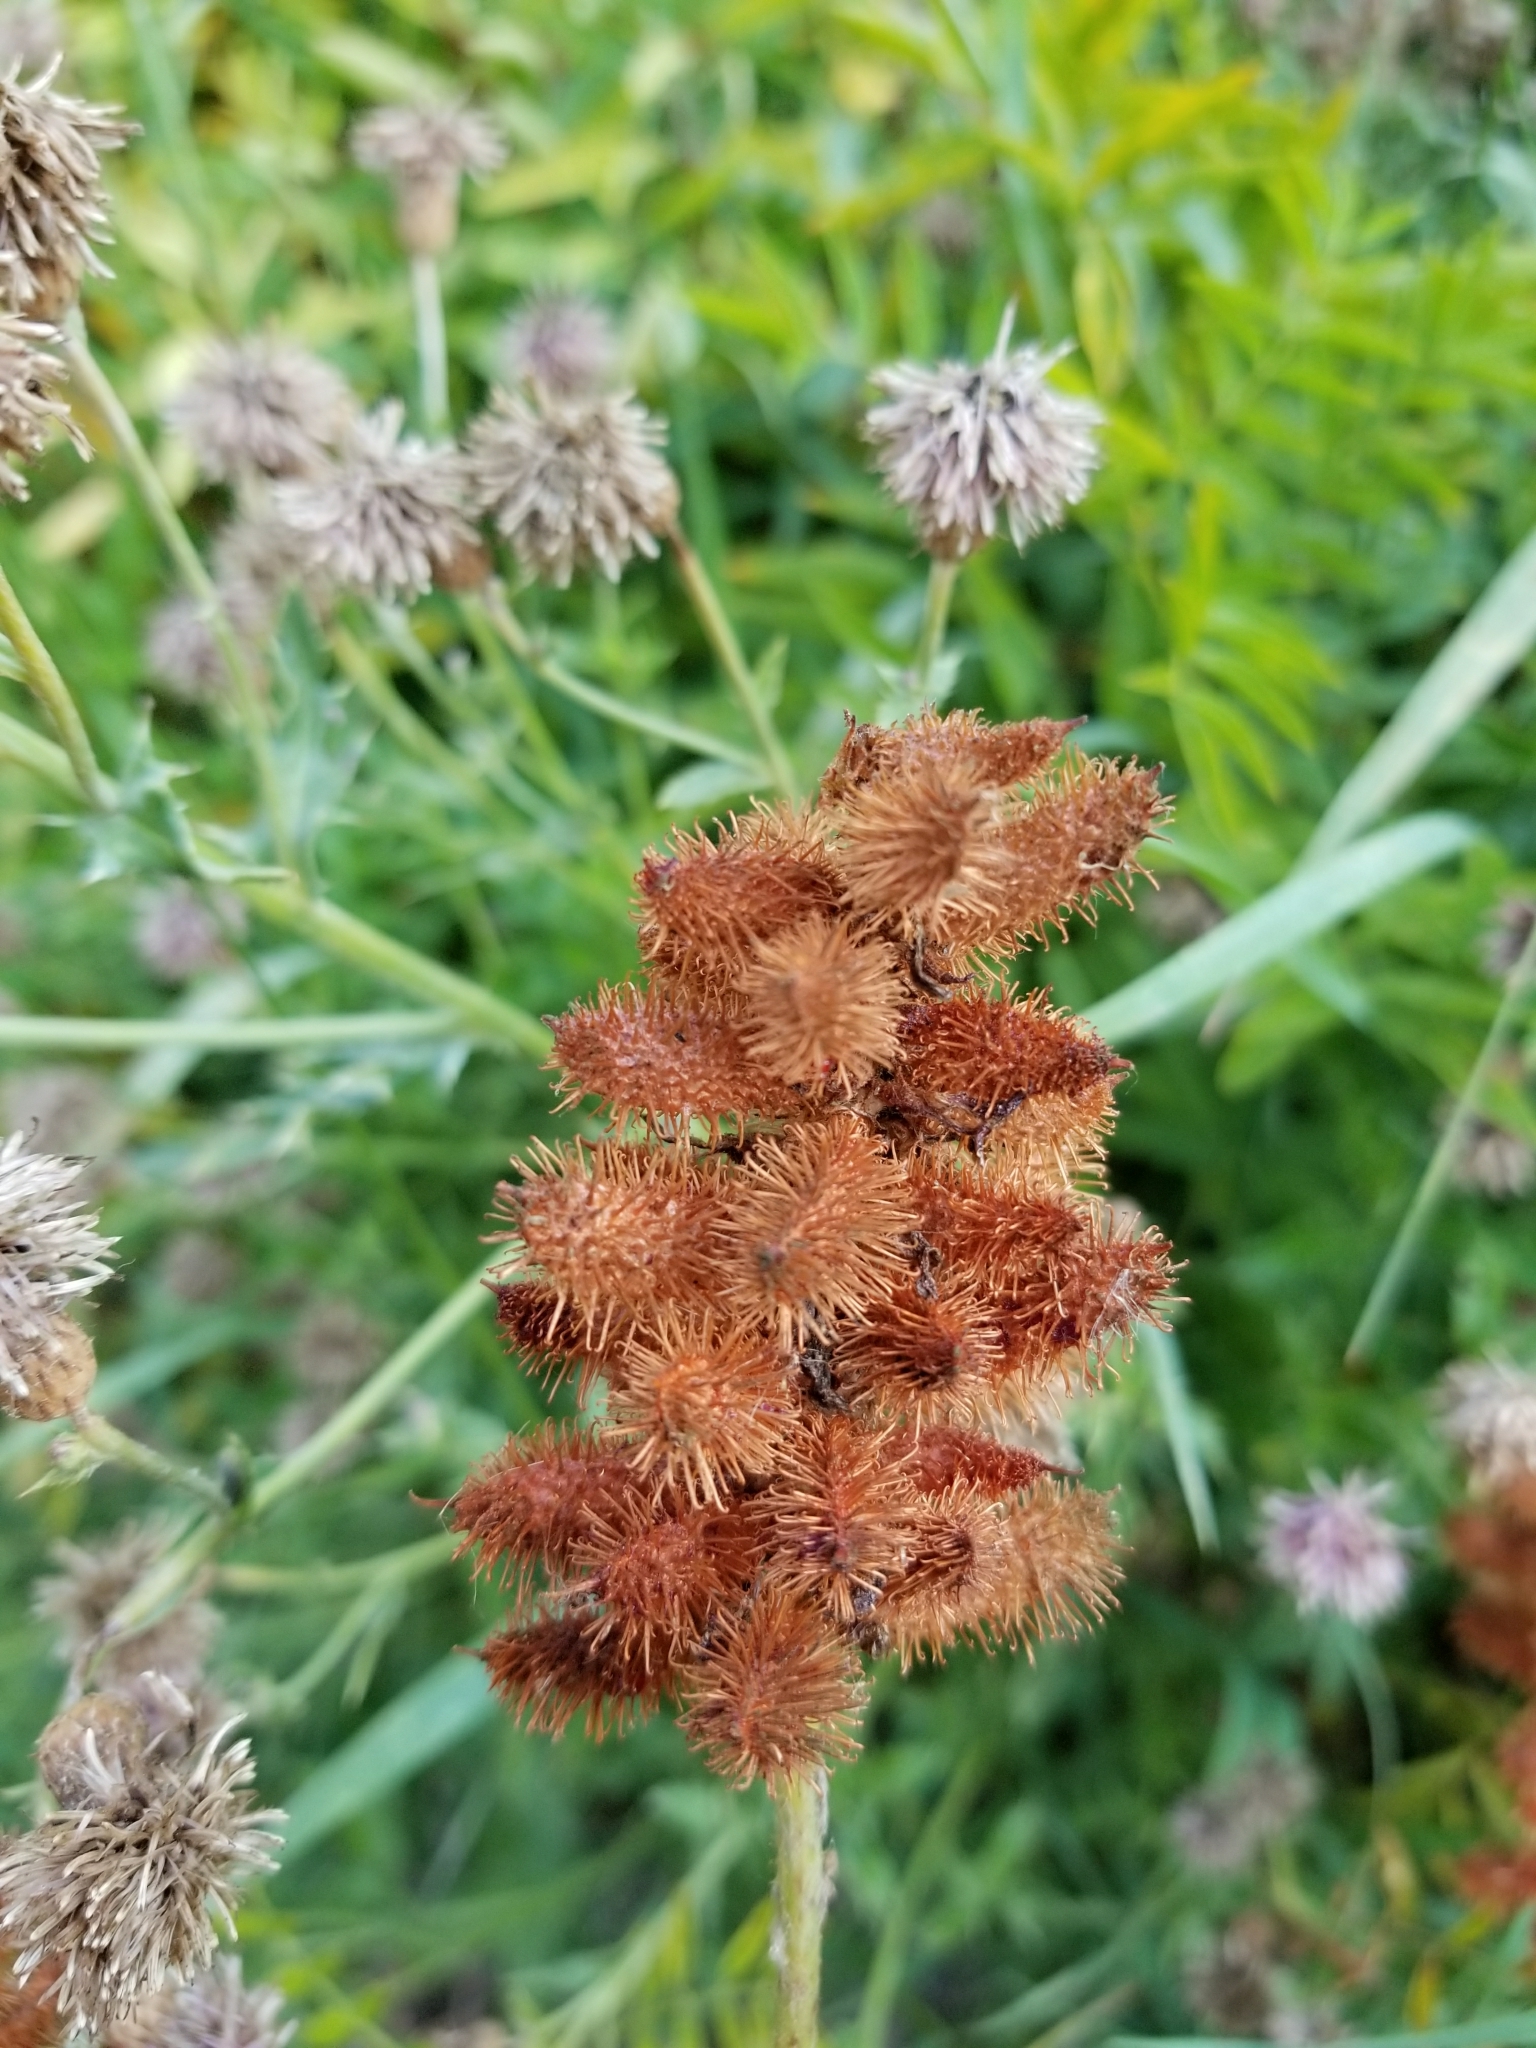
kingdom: Plantae
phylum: Tracheophyta
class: Magnoliopsida
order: Fabales
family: Fabaceae
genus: Glycyrrhiza
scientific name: Glycyrrhiza lepidota
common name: American liquorice
